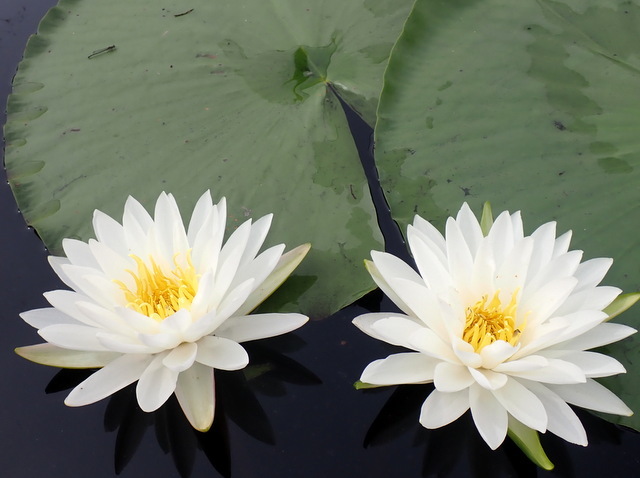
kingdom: Plantae
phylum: Tracheophyta
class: Magnoliopsida
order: Nymphaeales
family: Nymphaeaceae
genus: Nymphaea
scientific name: Nymphaea odorata
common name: Fragrant water-lily
